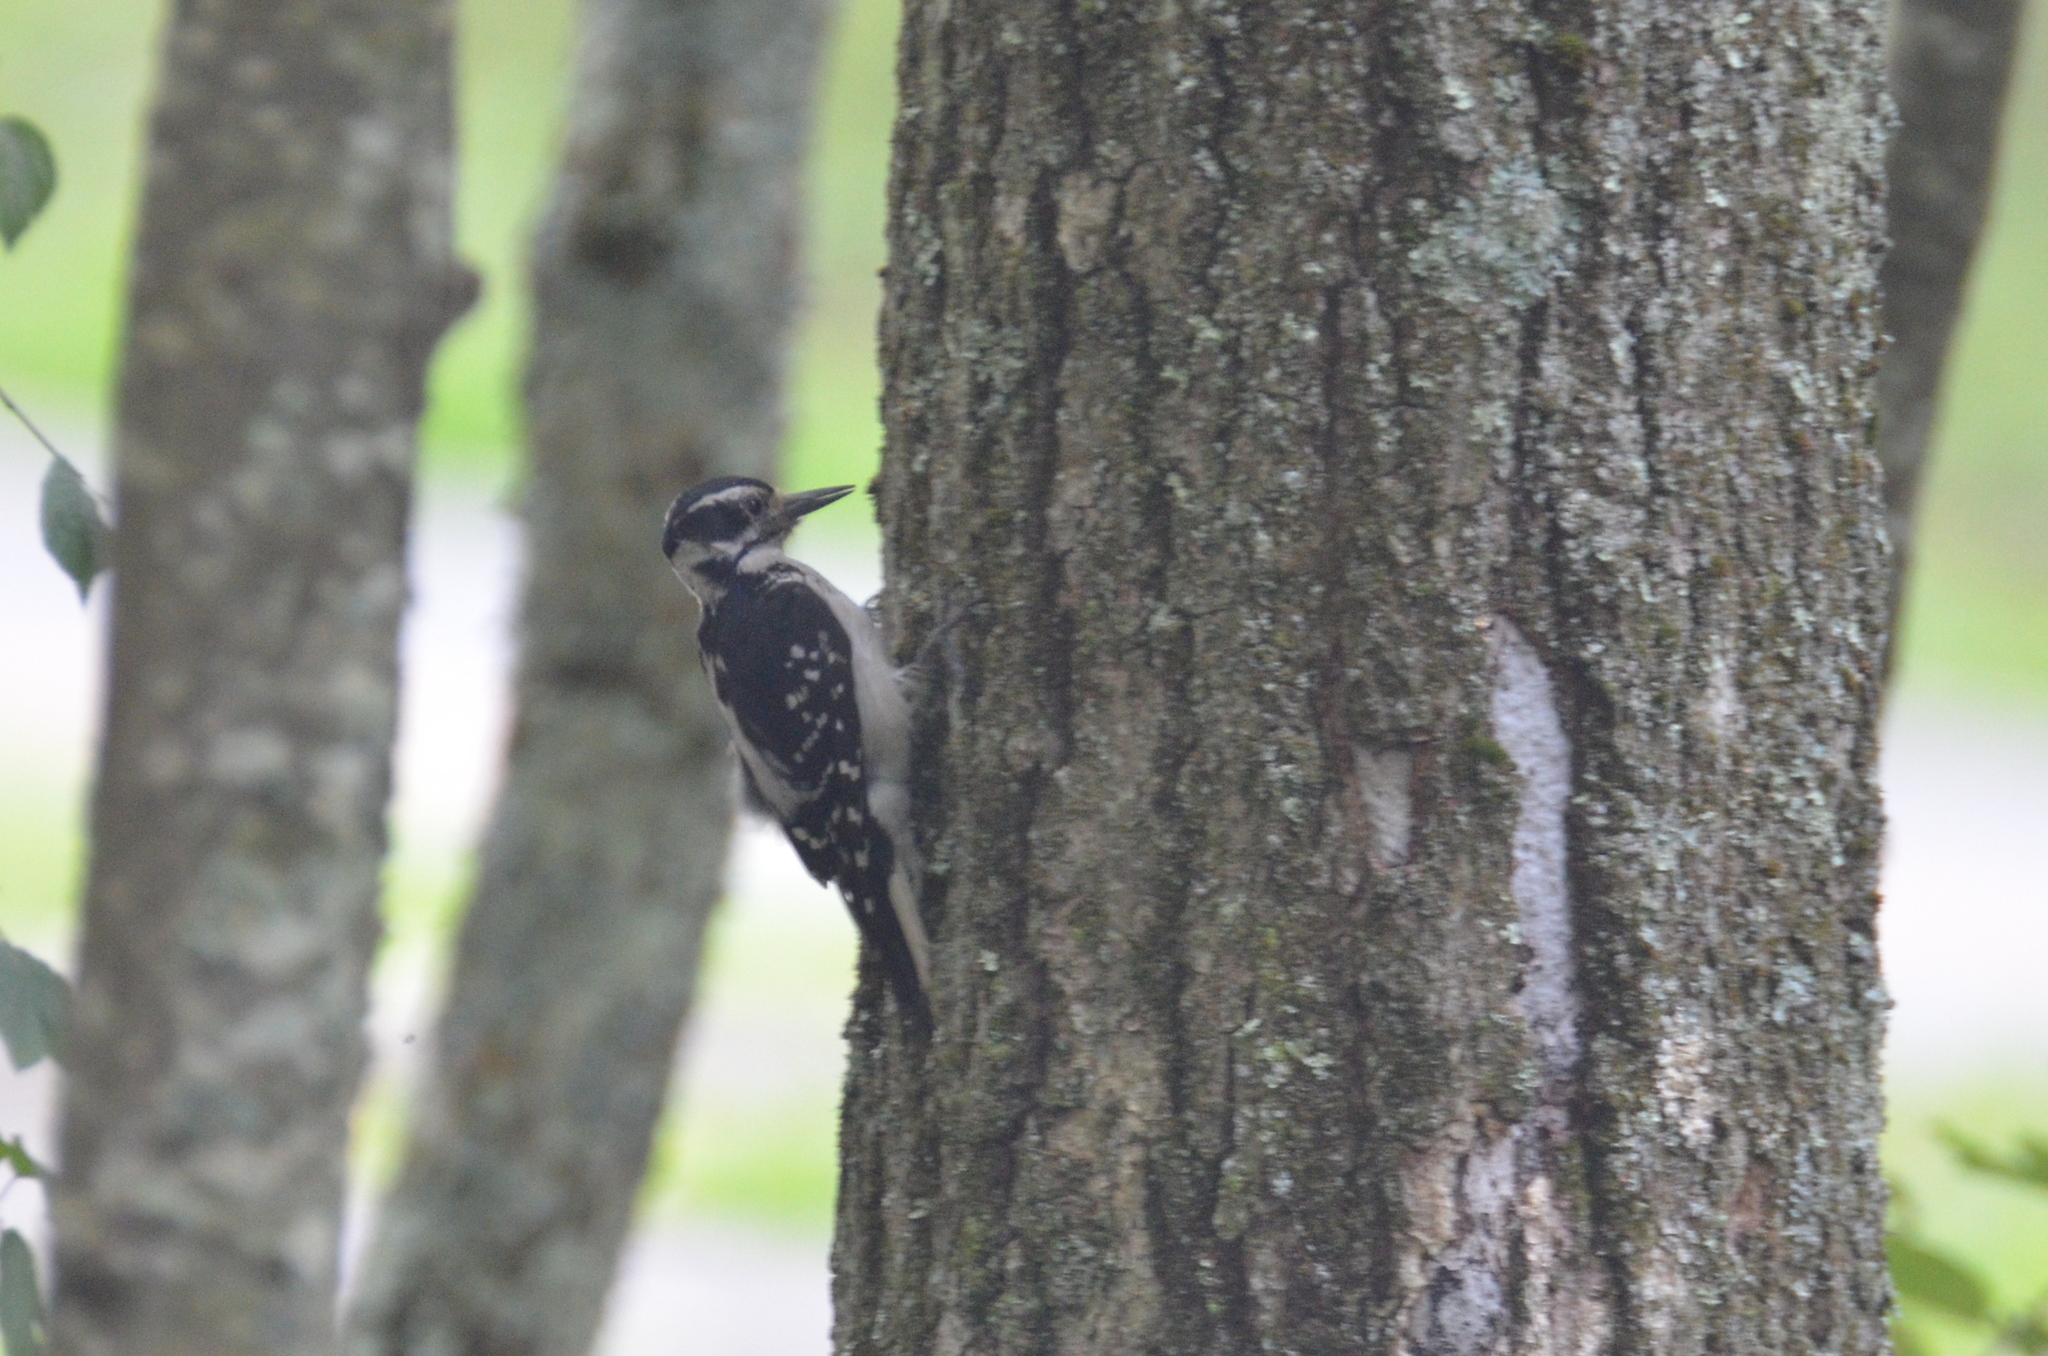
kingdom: Animalia
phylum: Chordata
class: Aves
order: Piciformes
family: Picidae
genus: Leuconotopicus
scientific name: Leuconotopicus villosus
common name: Hairy woodpecker
